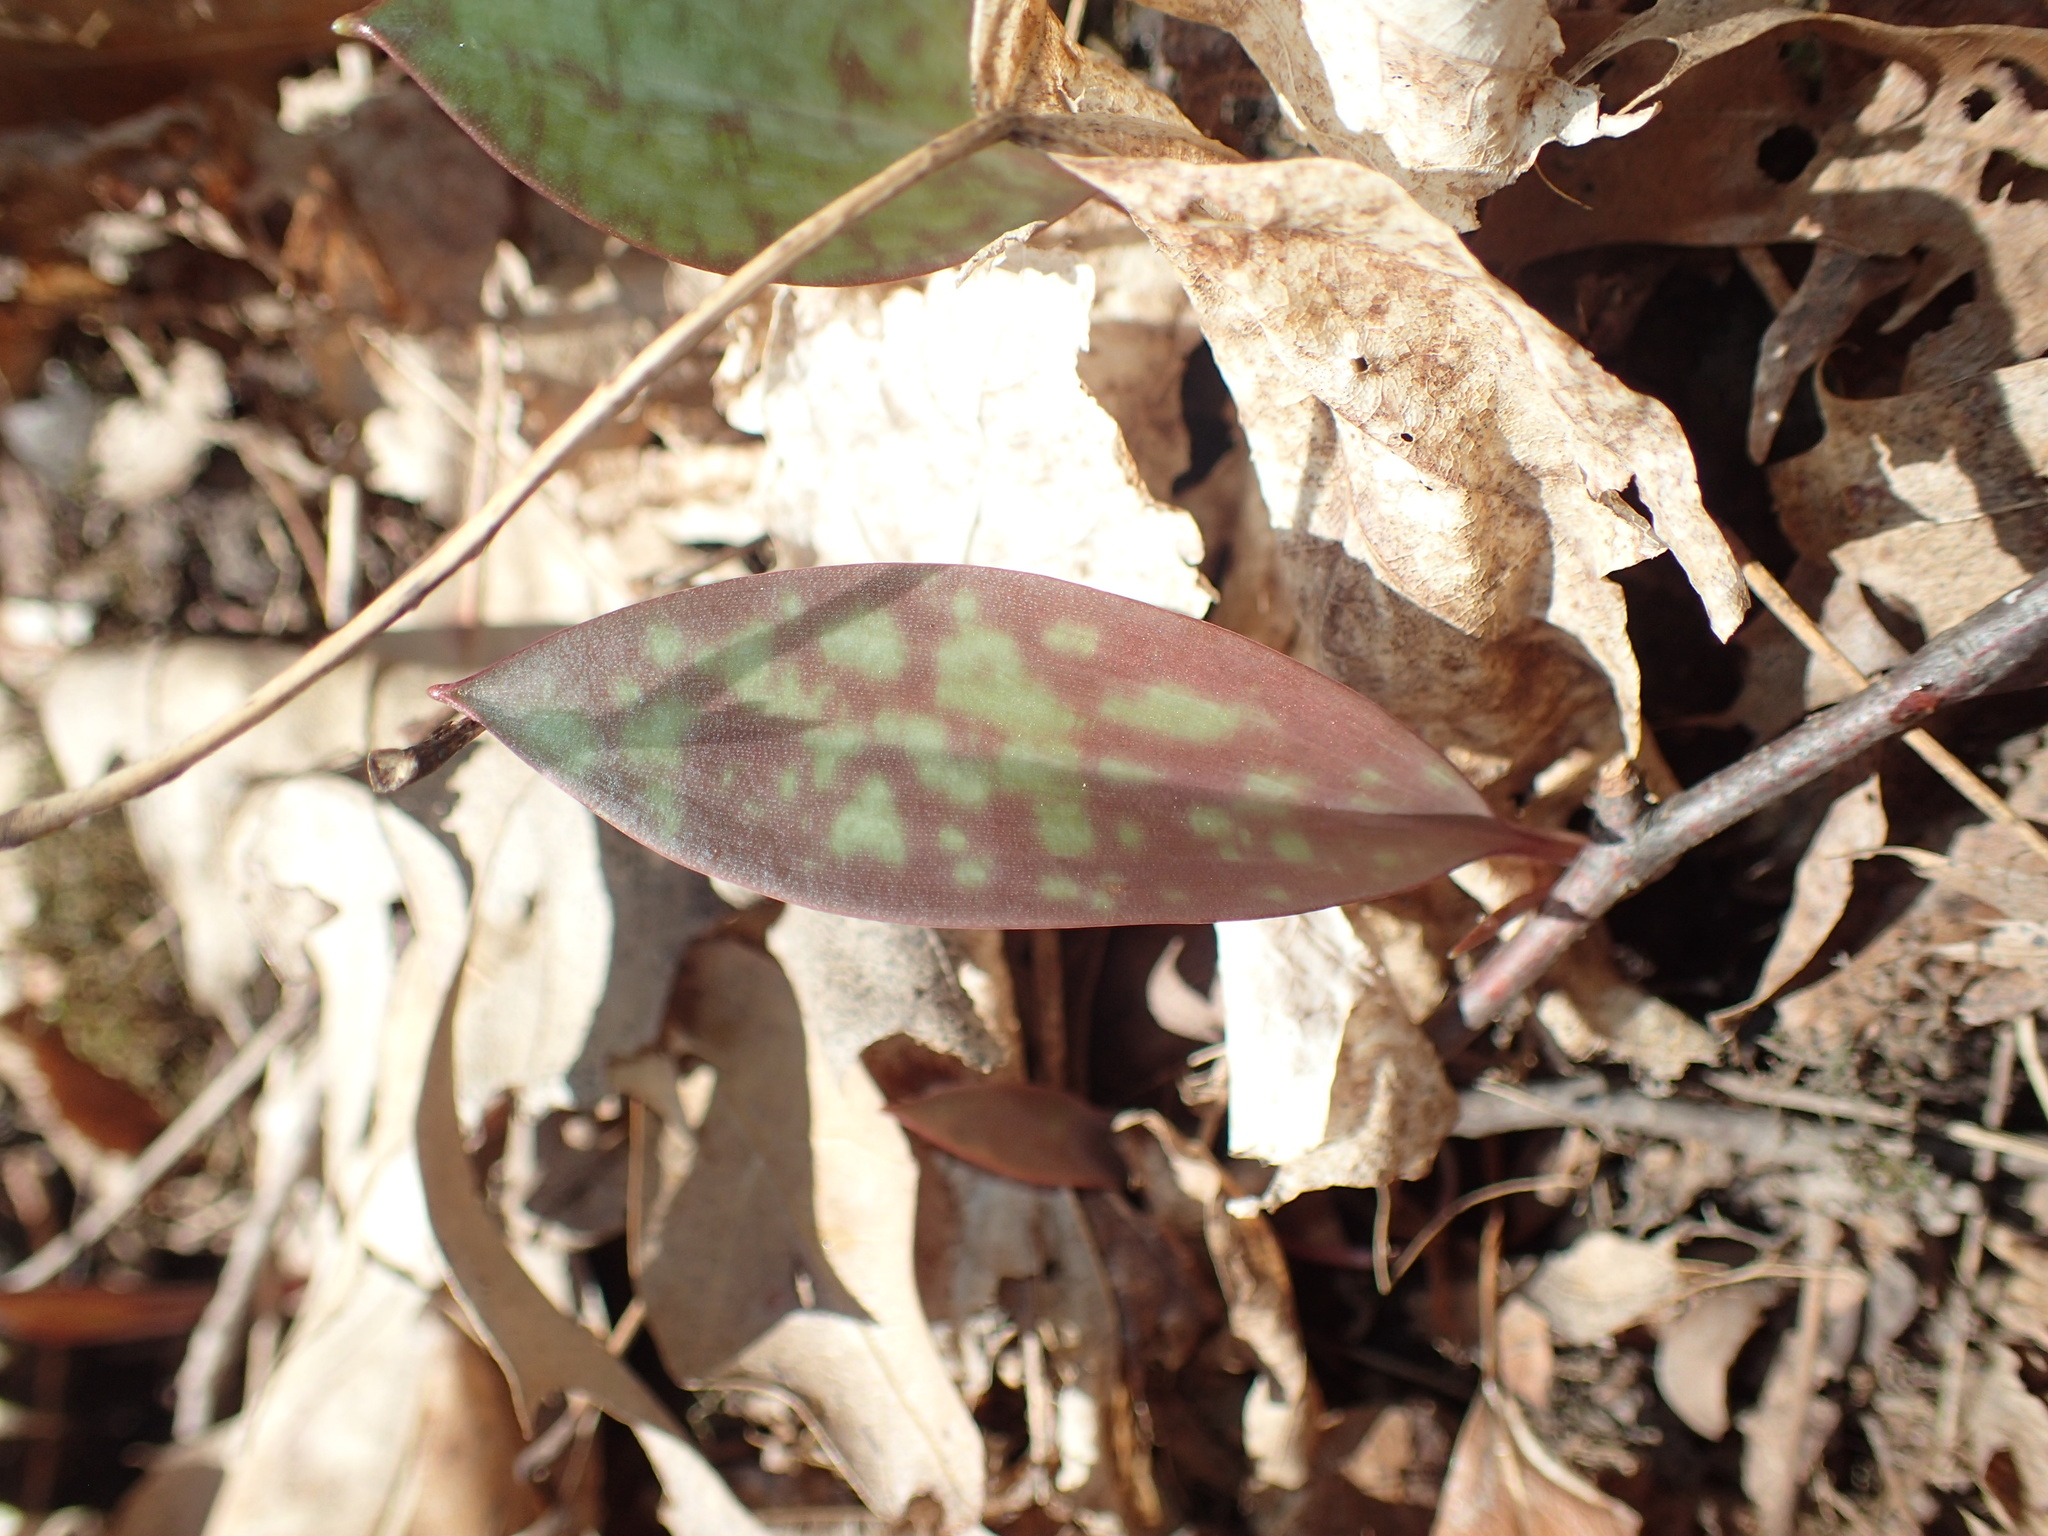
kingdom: Plantae
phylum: Tracheophyta
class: Liliopsida
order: Liliales
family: Liliaceae
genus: Erythronium
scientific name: Erythronium americanum
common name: Yellow adder's-tongue
